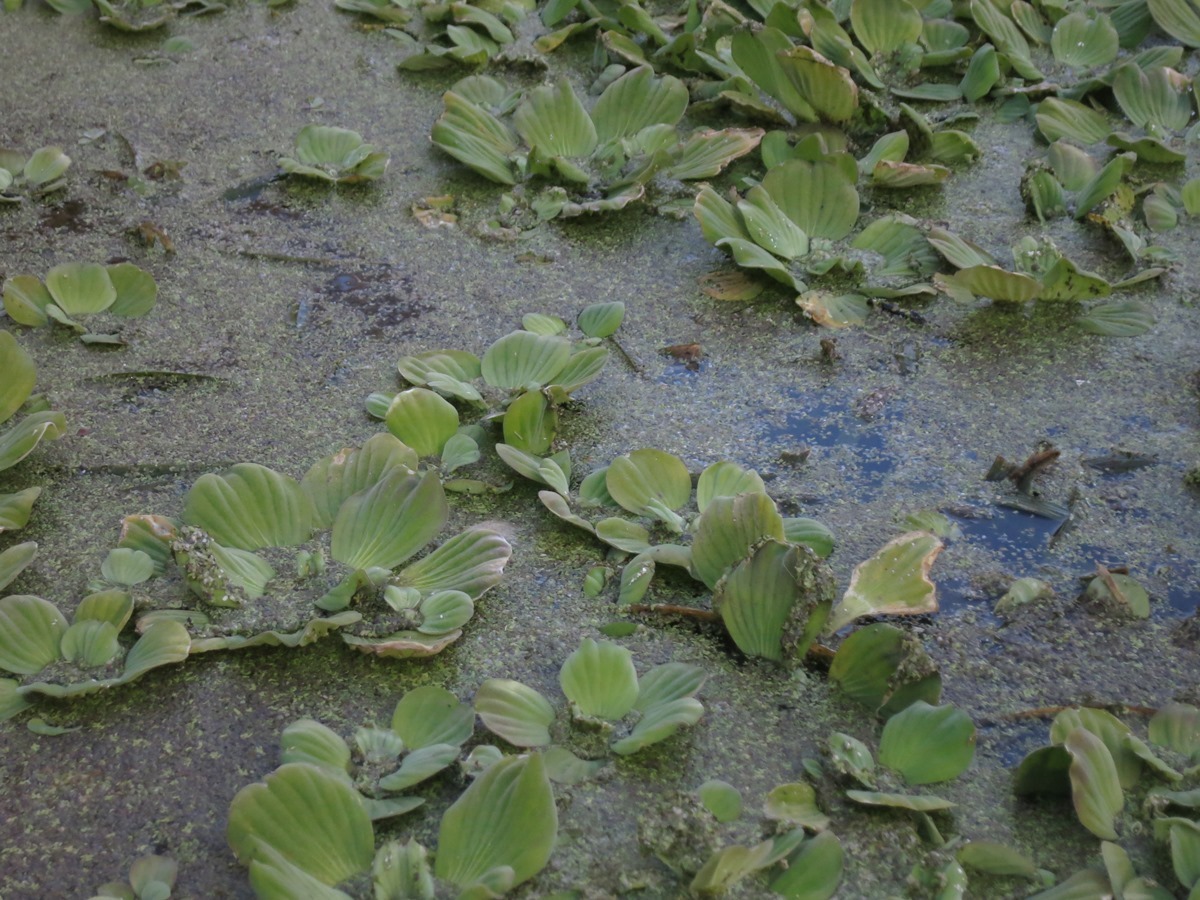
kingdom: Plantae
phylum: Tracheophyta
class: Liliopsida
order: Alismatales
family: Araceae
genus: Pistia
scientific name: Pistia stratiotes
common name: Water lettuce
